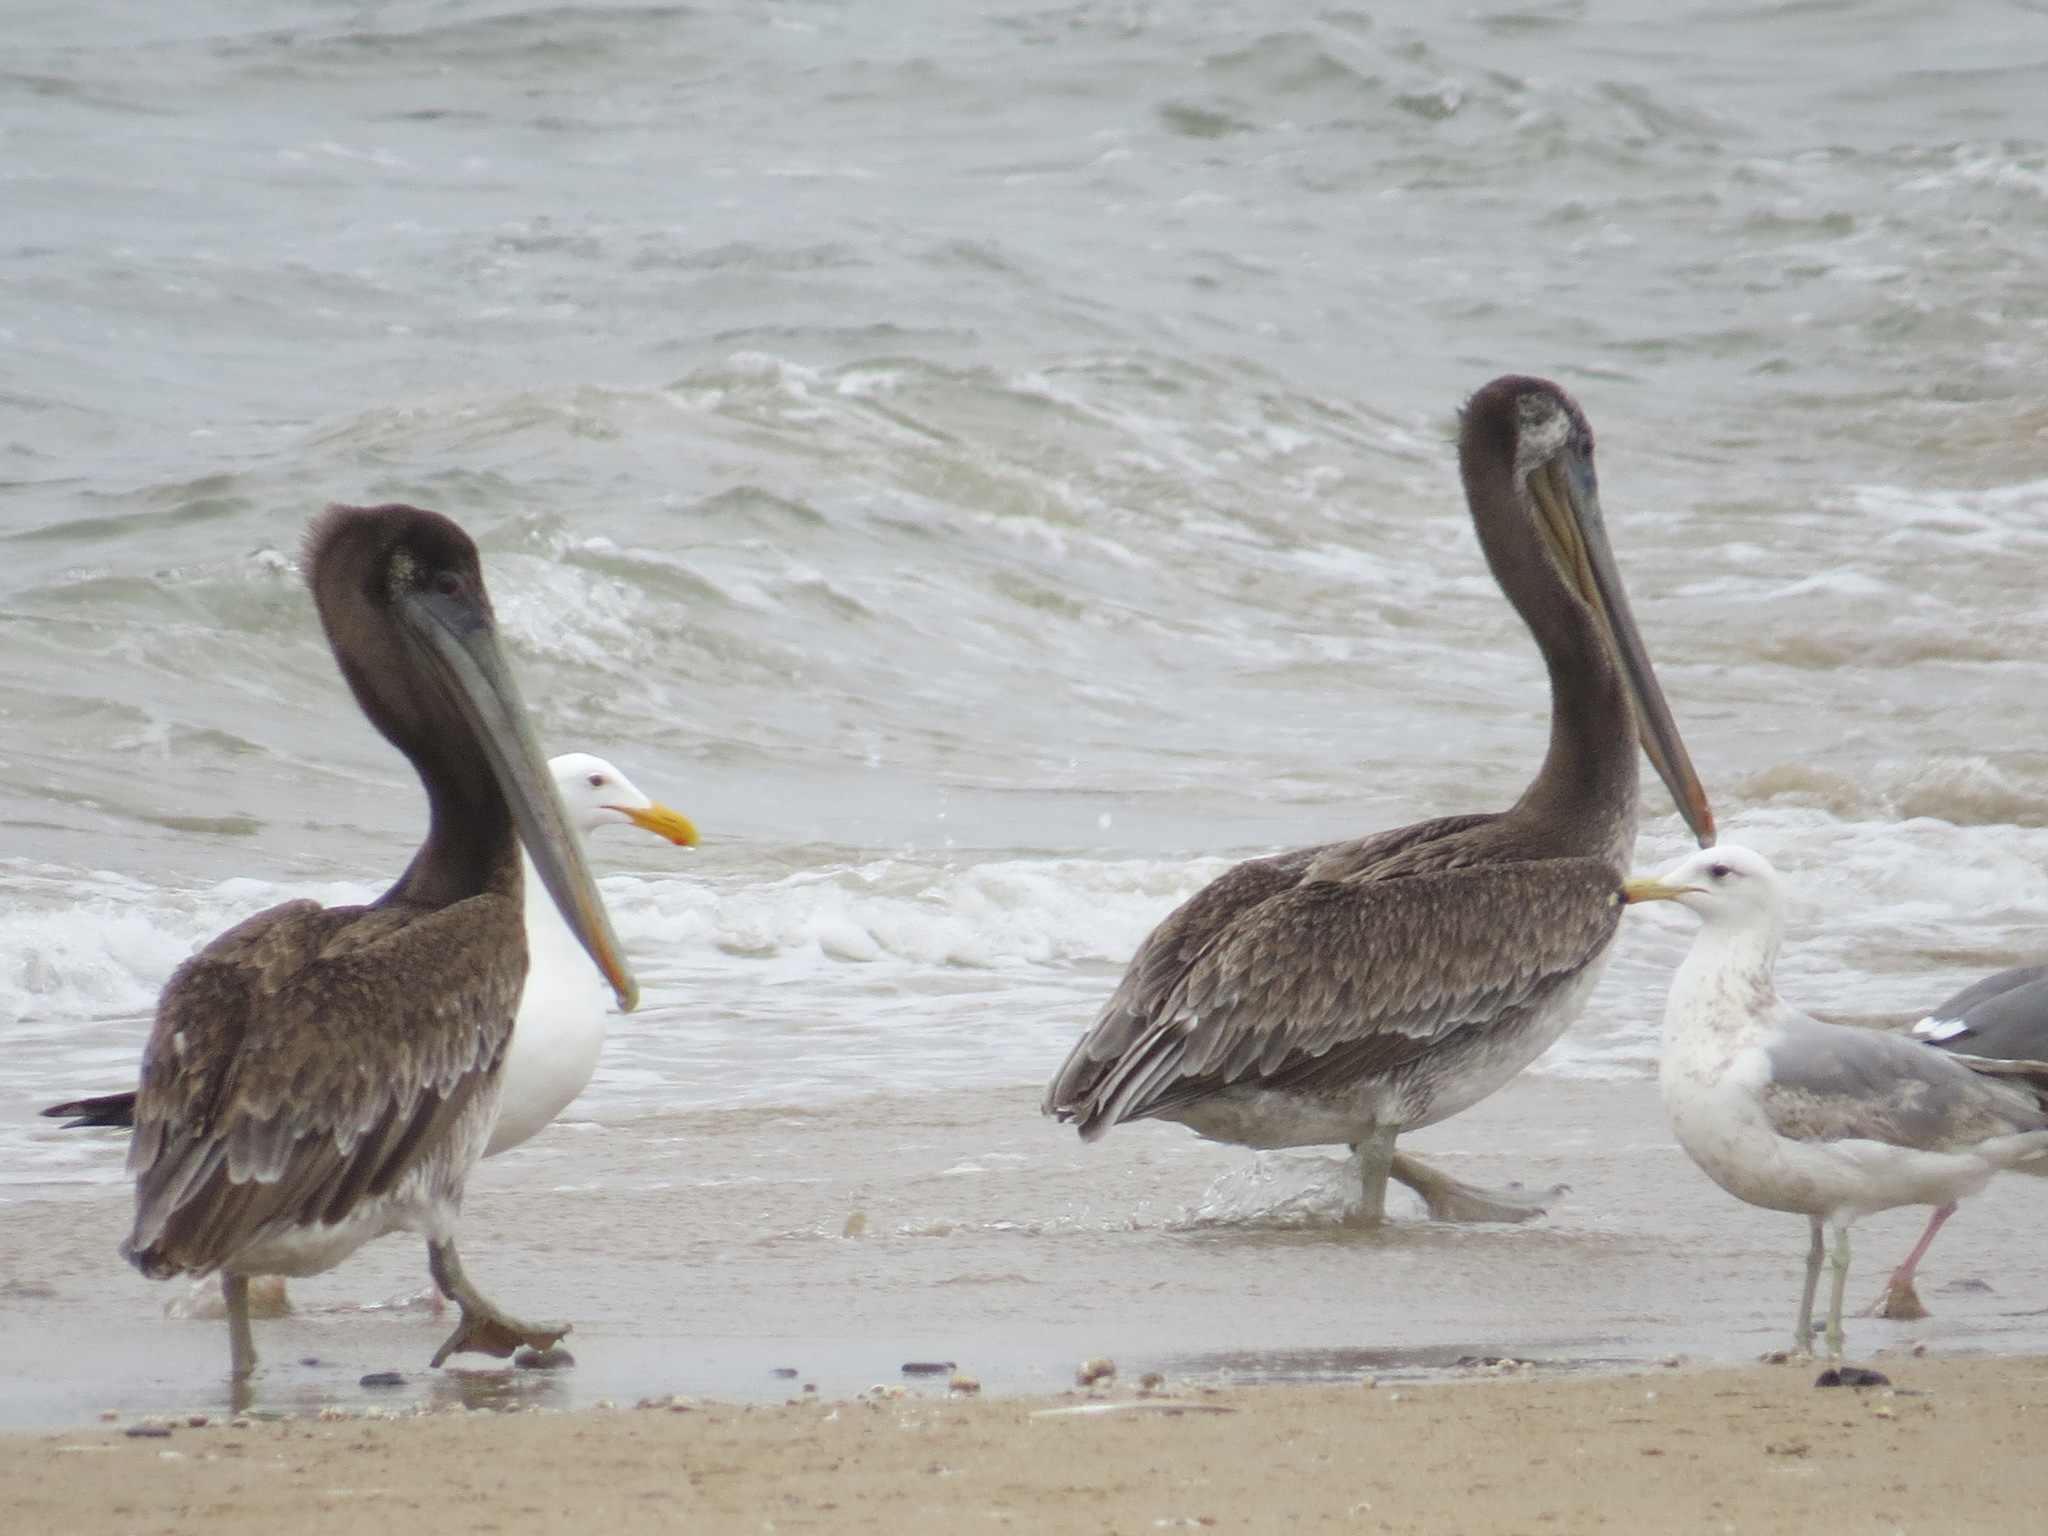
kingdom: Animalia
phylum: Chordata
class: Aves
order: Pelecaniformes
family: Pelecanidae
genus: Pelecanus
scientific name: Pelecanus occidentalis
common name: Brown pelican
